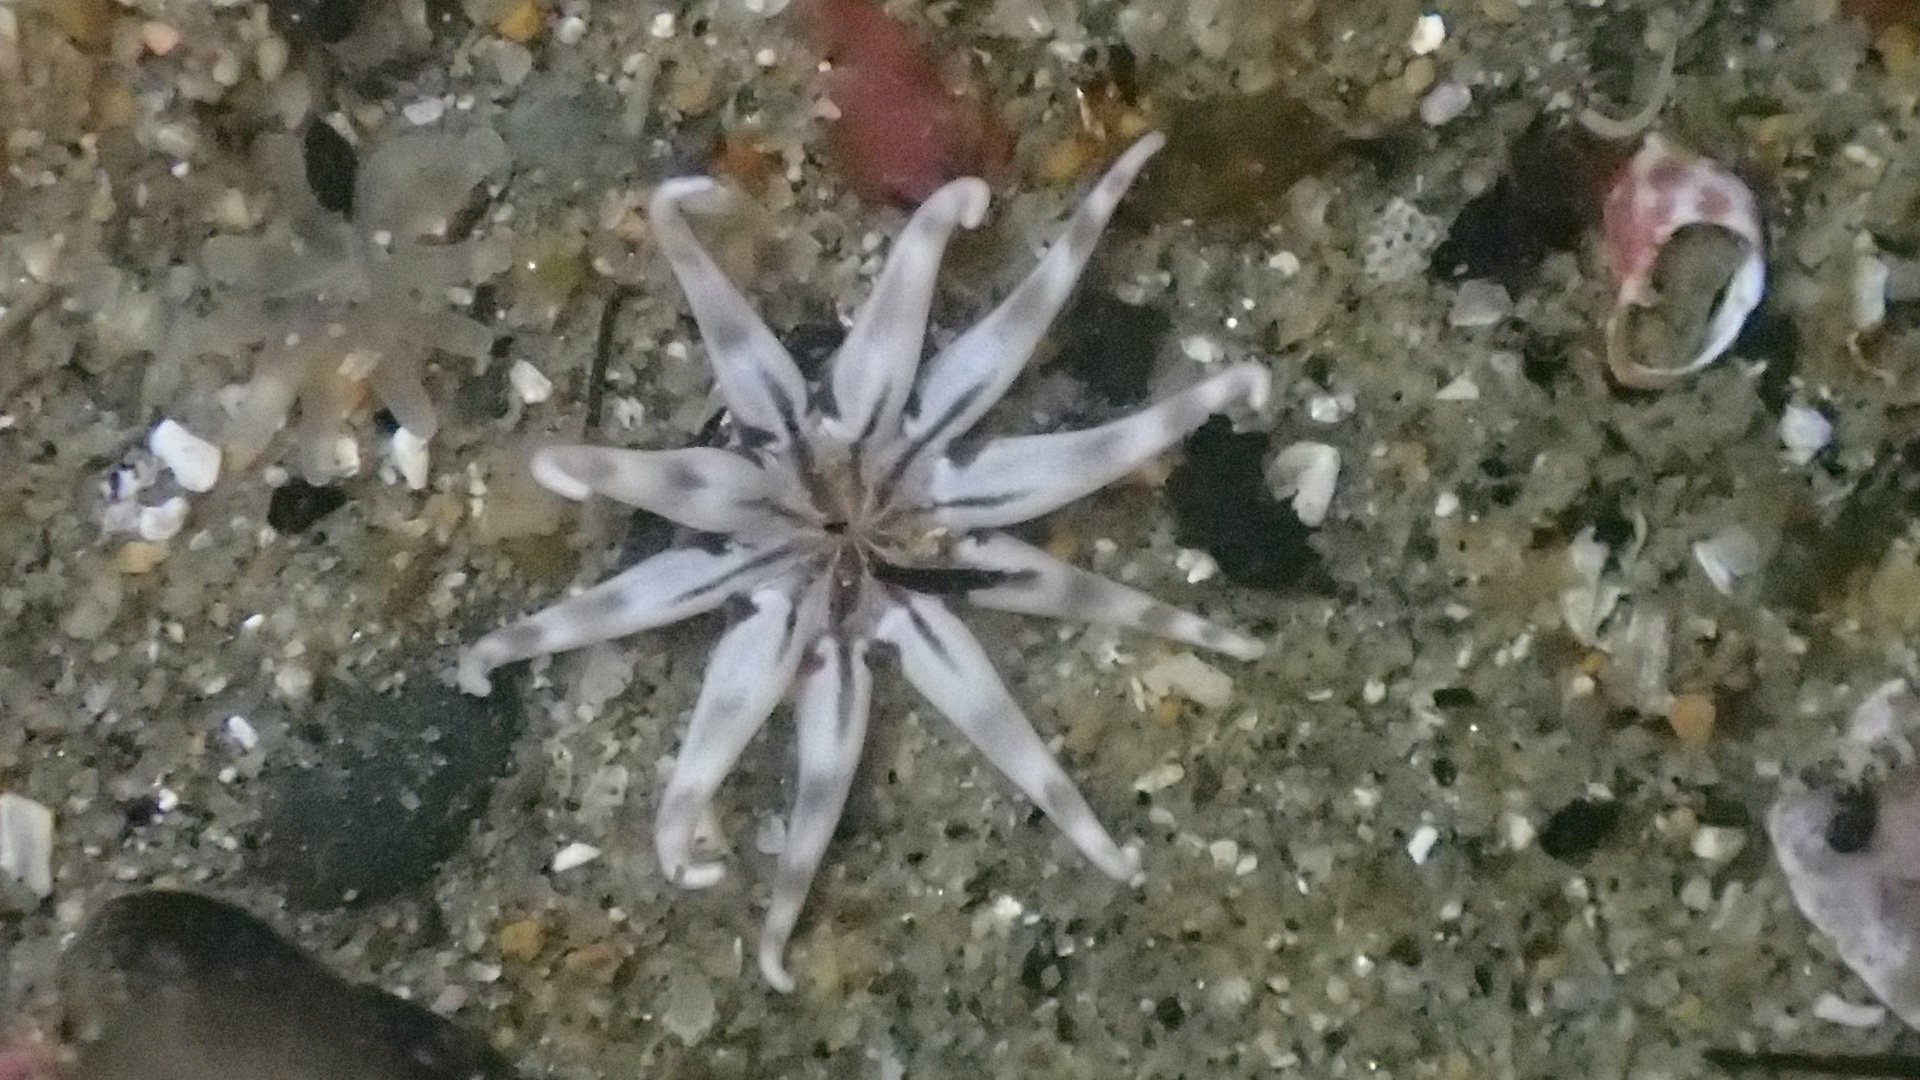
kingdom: Animalia
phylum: Cnidaria
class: Anthozoa
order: Actiniaria
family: Halcampidae
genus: Halcampa
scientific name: Halcampa decemtentaculata
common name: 10-tentacle burrowing anemone
